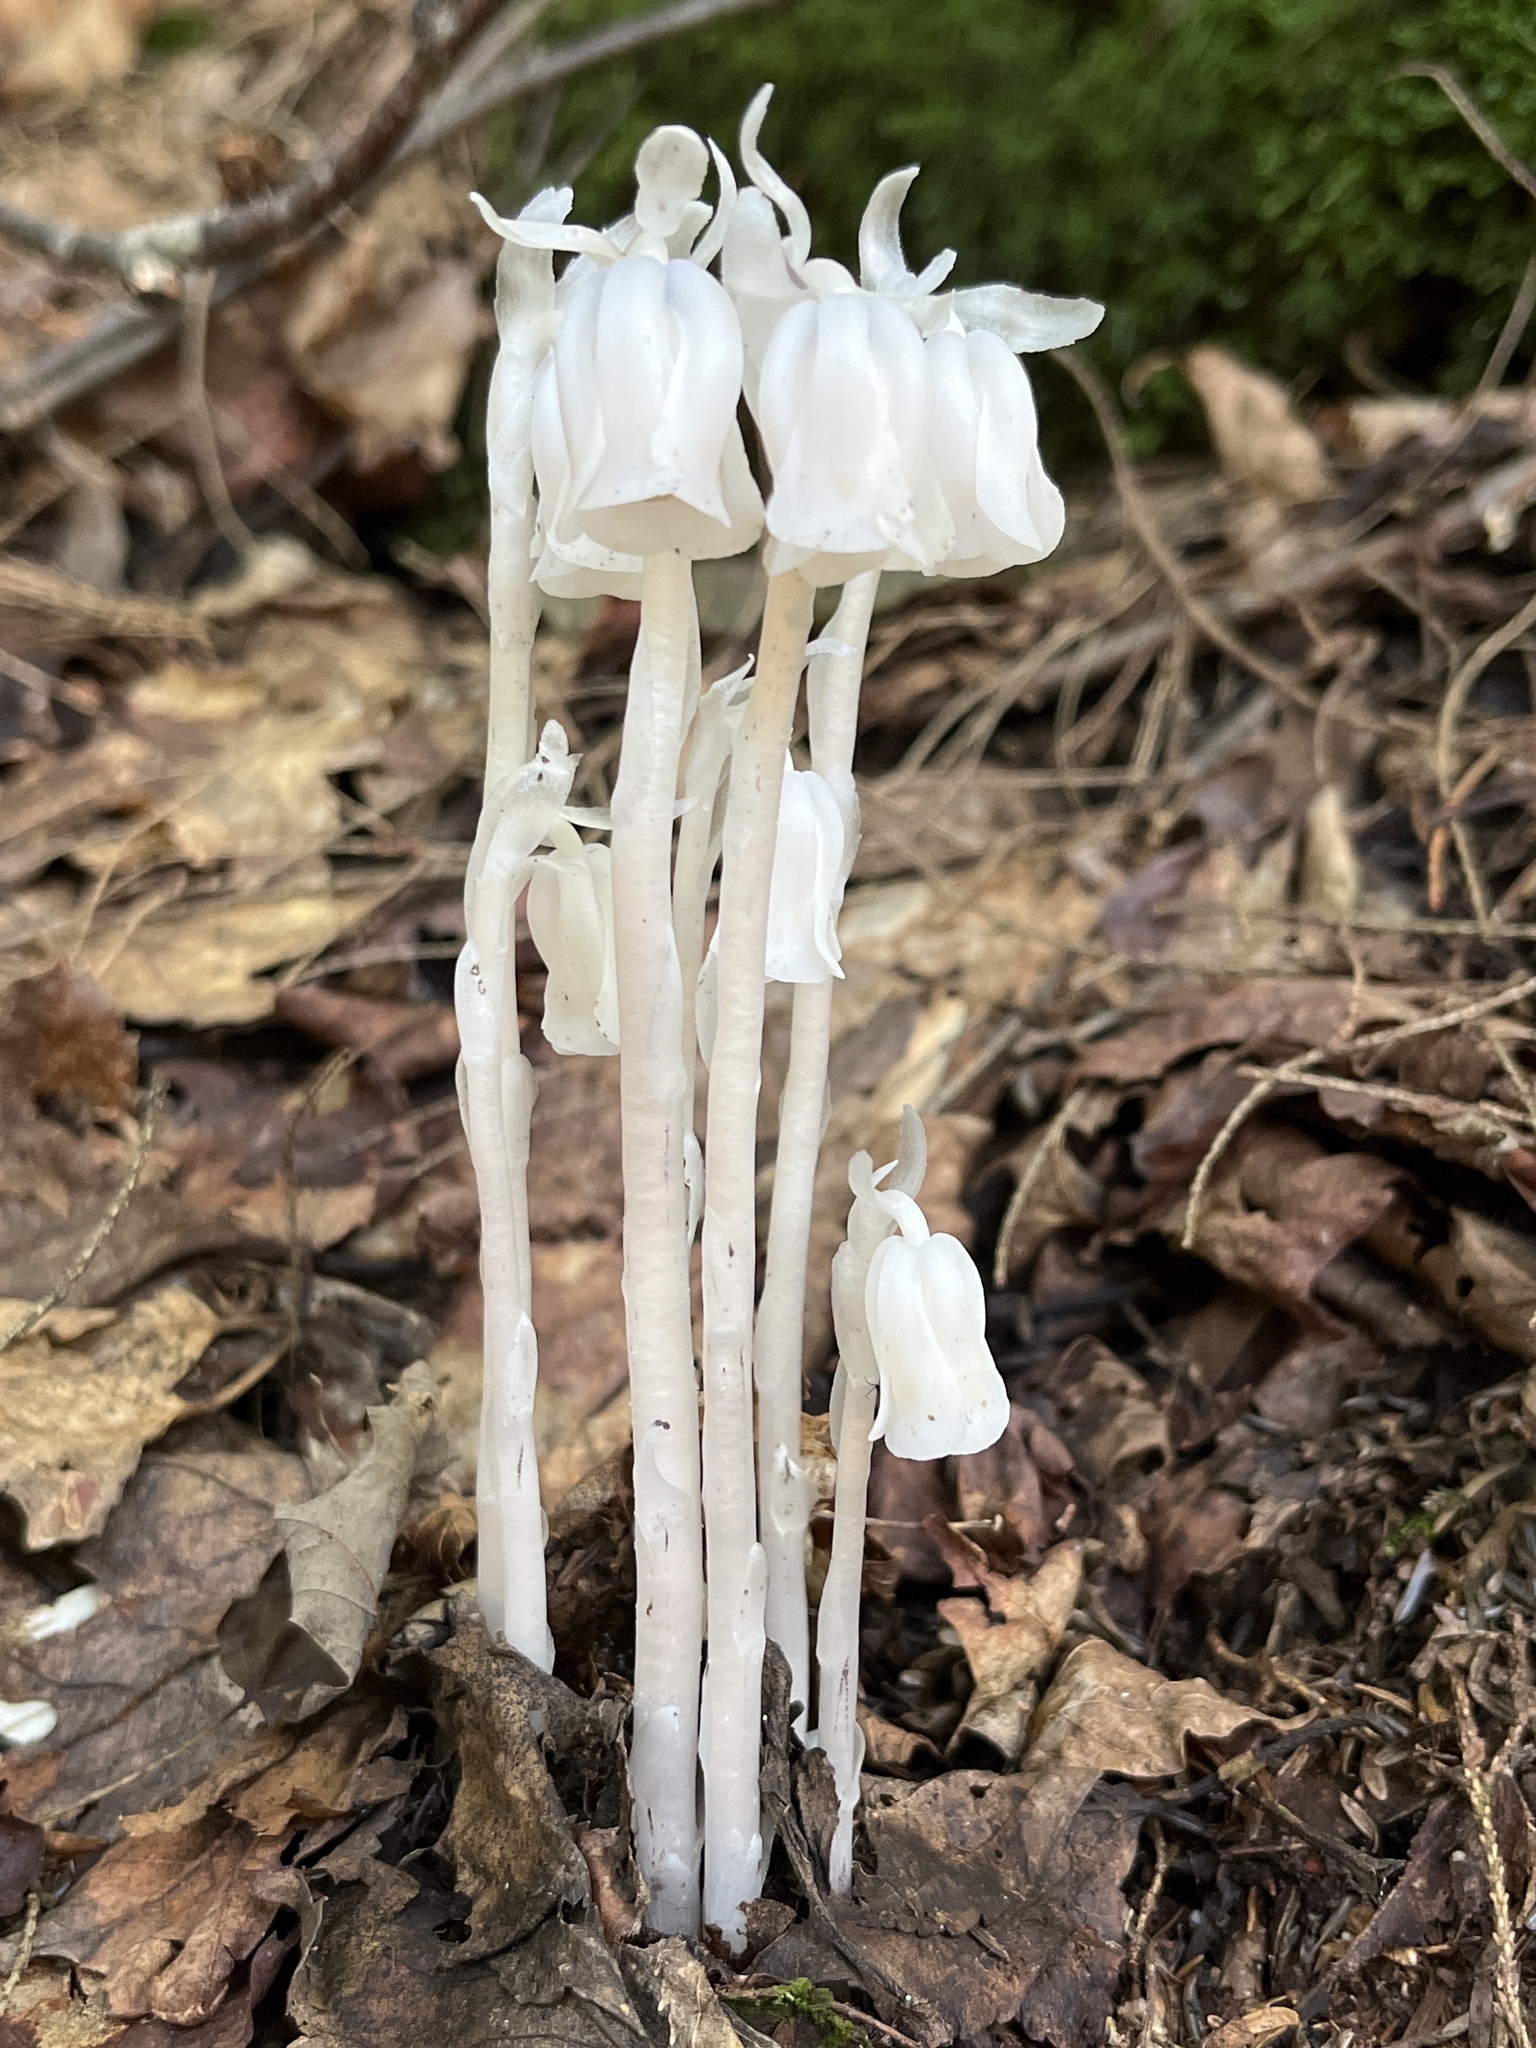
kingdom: Plantae
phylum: Tracheophyta
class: Magnoliopsida
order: Ericales
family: Ericaceae
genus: Monotropa
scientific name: Monotropa uniflora
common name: Convulsion root
